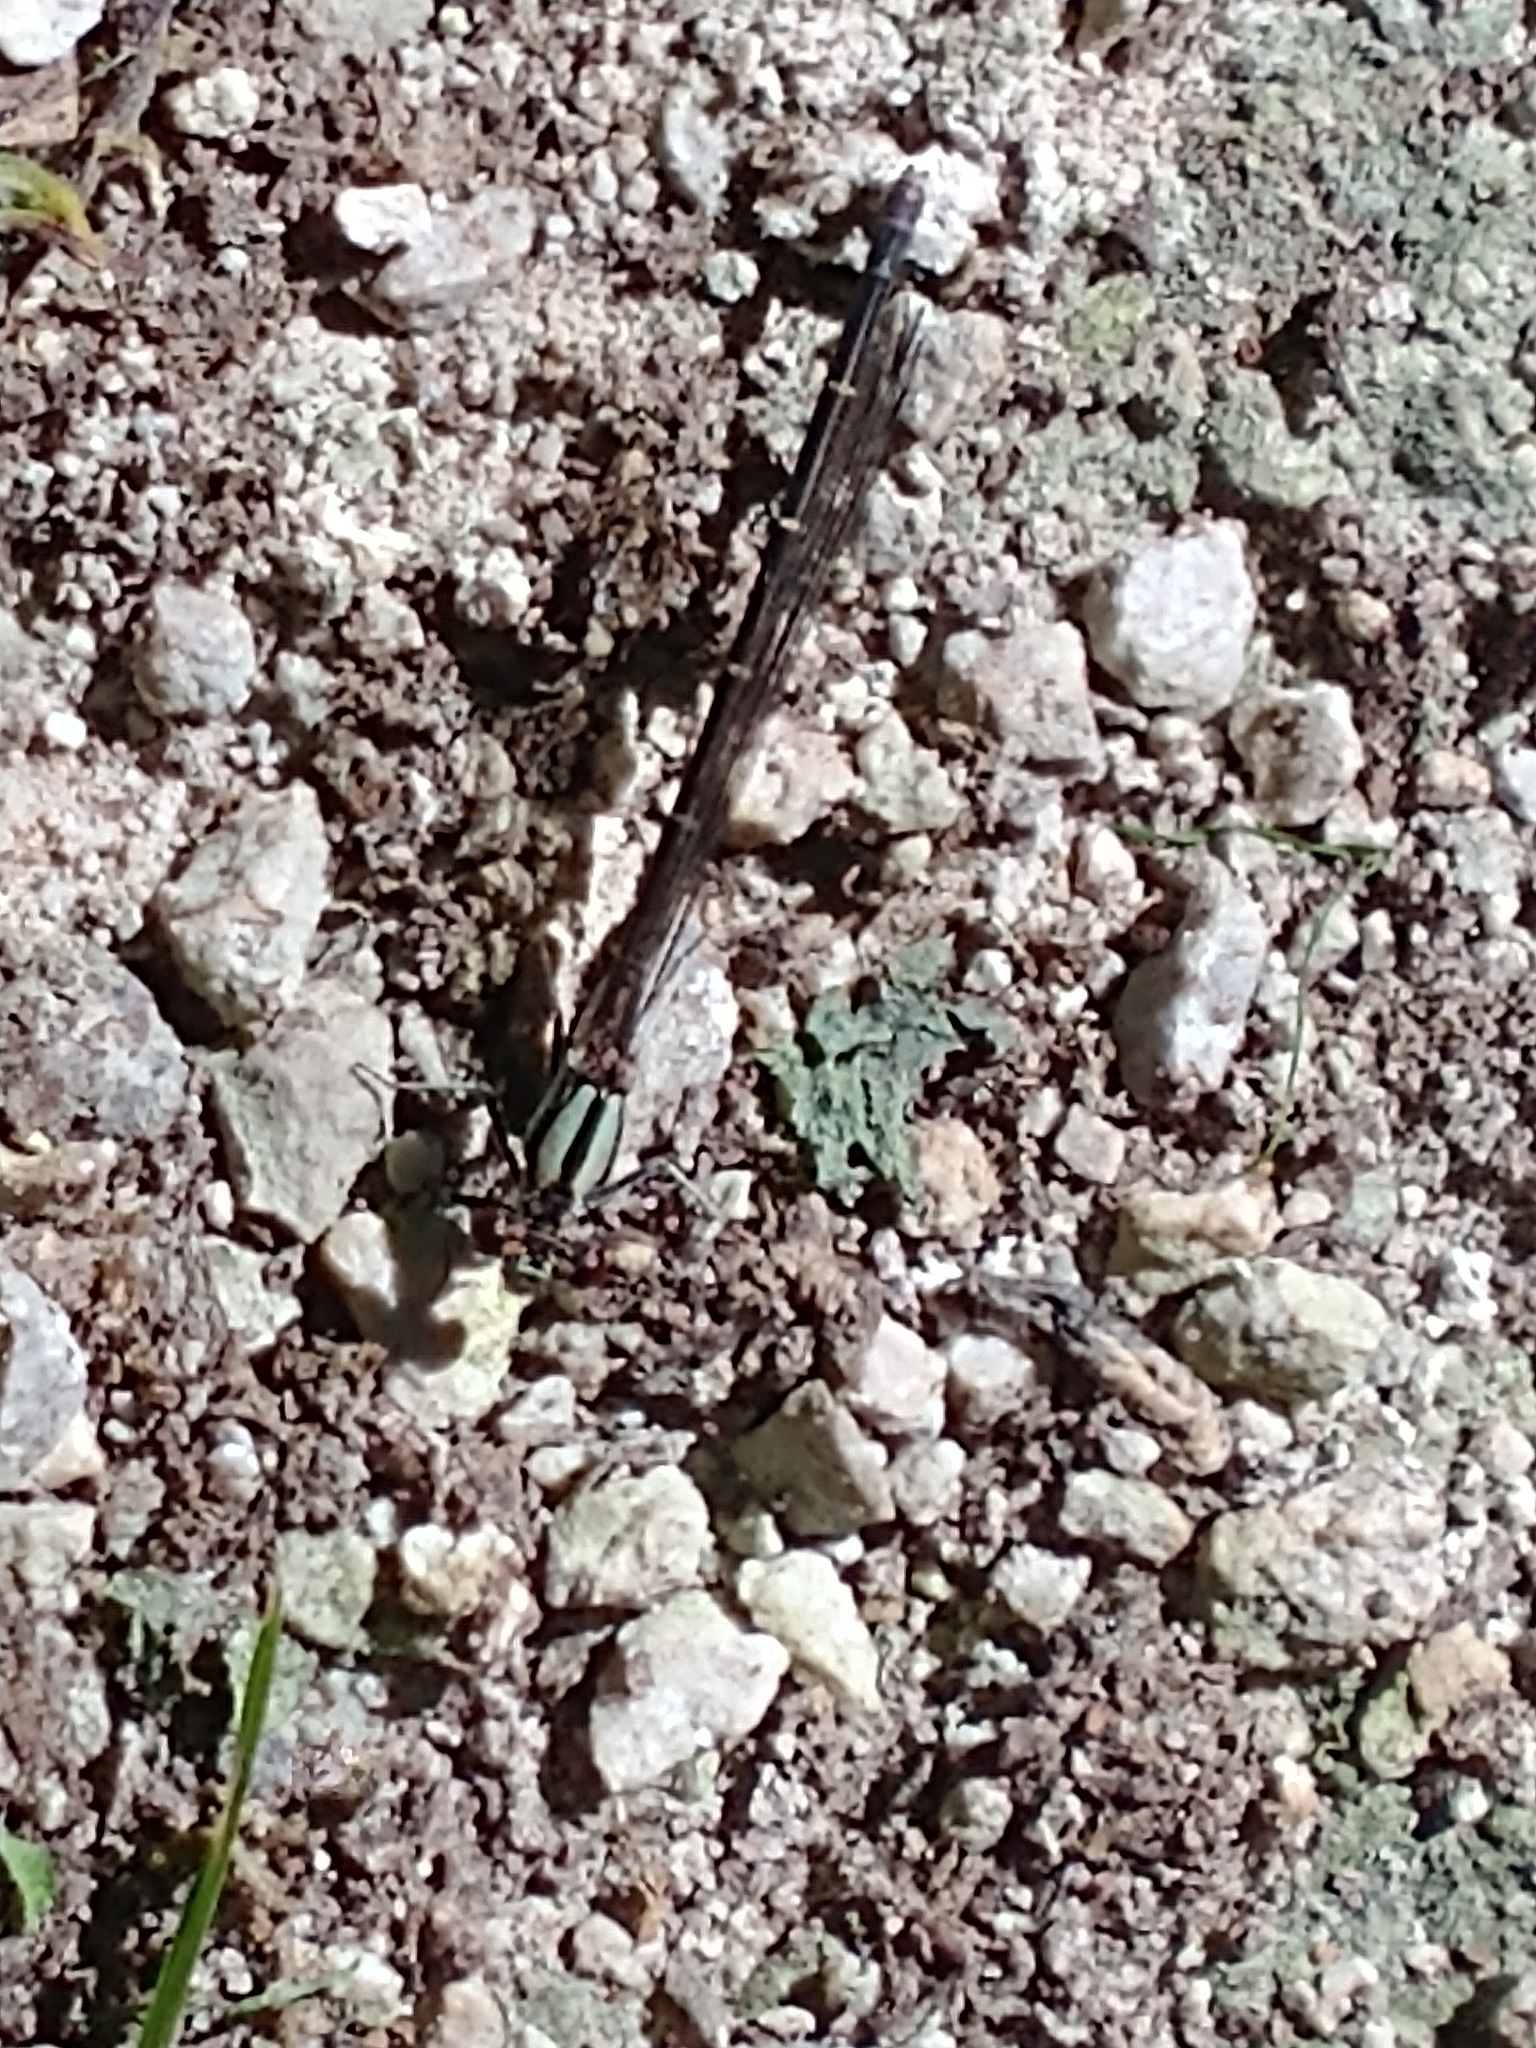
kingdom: Animalia
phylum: Arthropoda
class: Insecta
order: Odonata
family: Coenagrionidae
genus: Argia
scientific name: Argia tibialis
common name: Blue-tipped dancer
